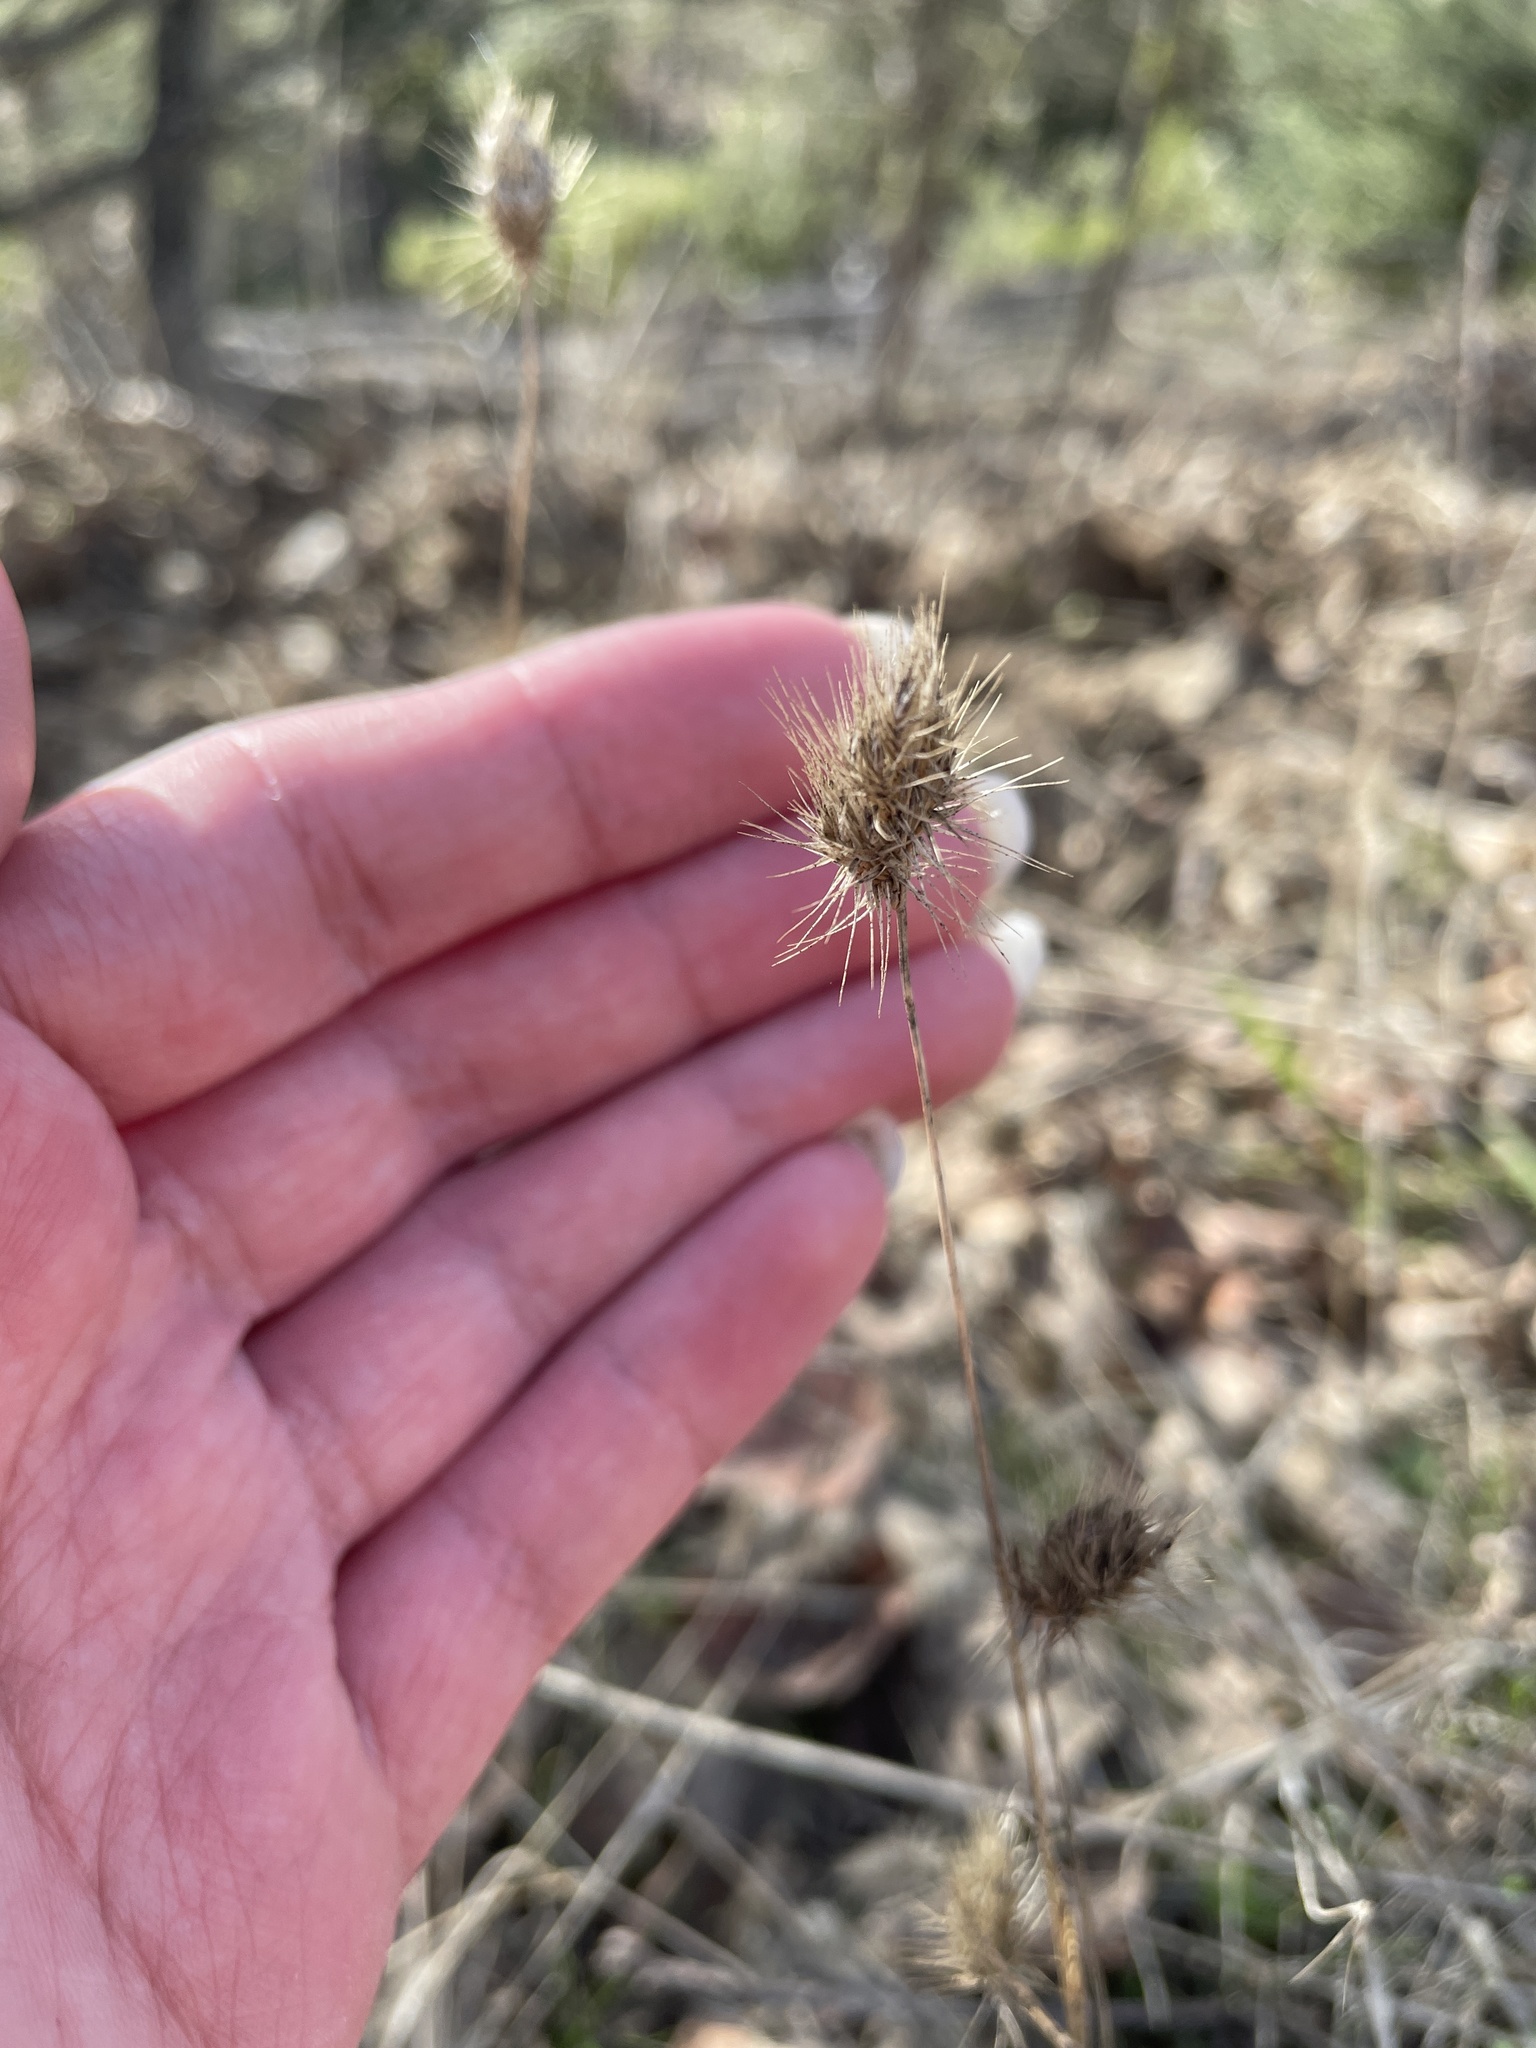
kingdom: Plantae
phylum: Tracheophyta
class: Liliopsida
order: Poales
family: Poaceae
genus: Cynosurus
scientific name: Cynosurus echinatus
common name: Rough dog's-tail
